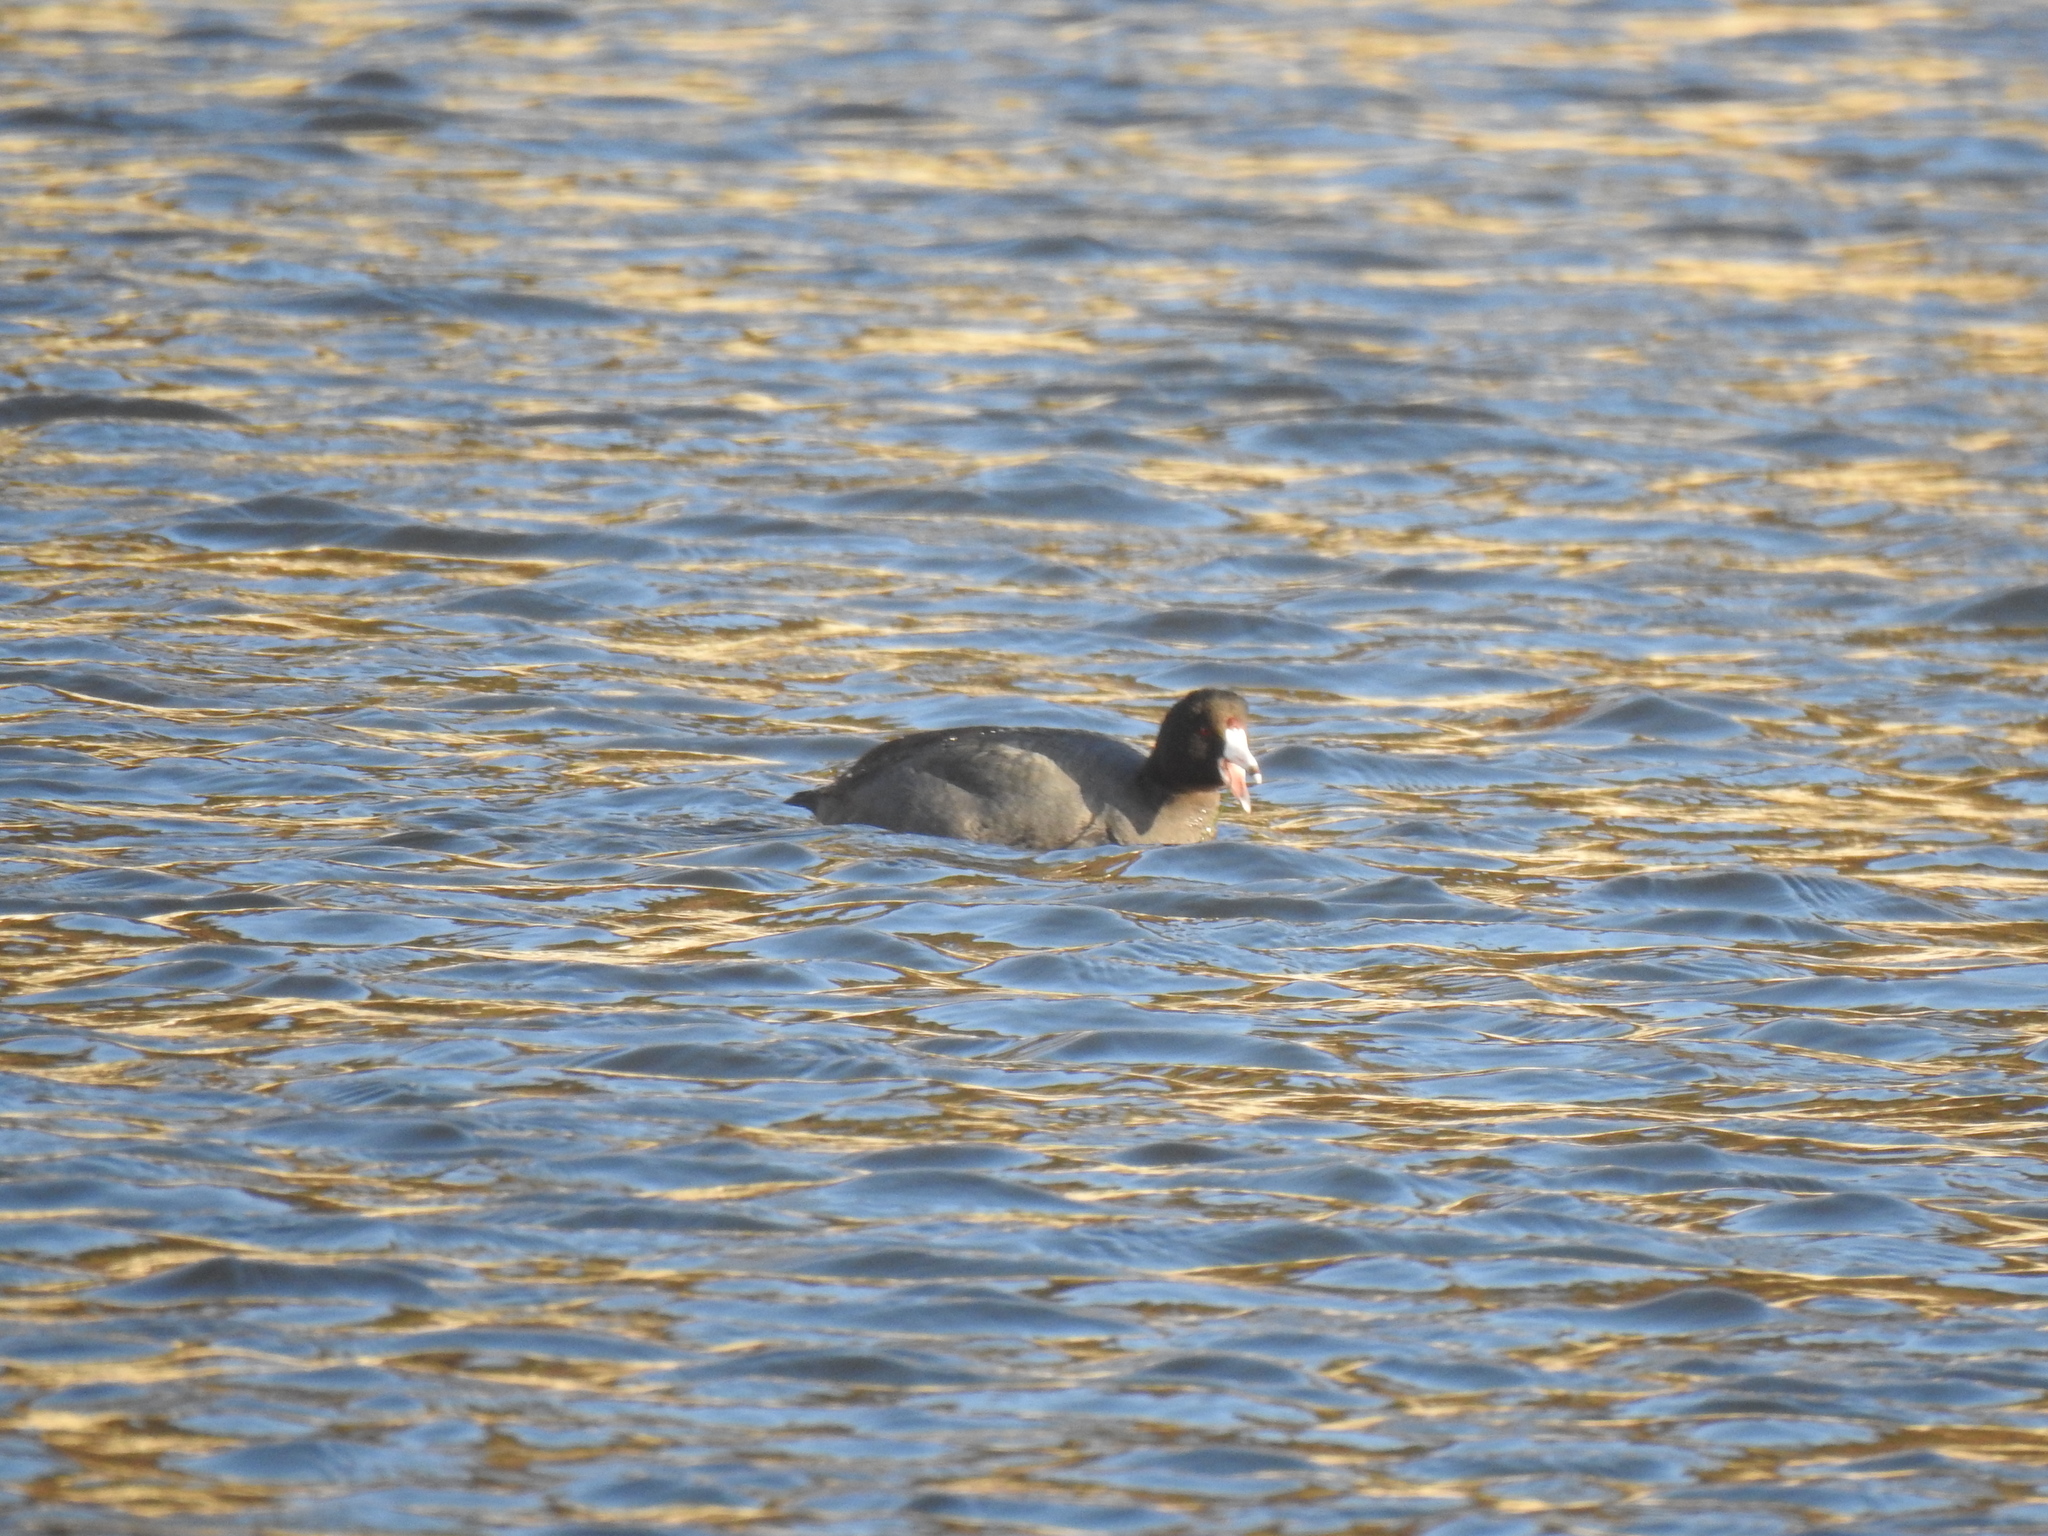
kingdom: Animalia
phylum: Chordata
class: Aves
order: Gruiformes
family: Rallidae
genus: Fulica
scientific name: Fulica americana
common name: American coot
